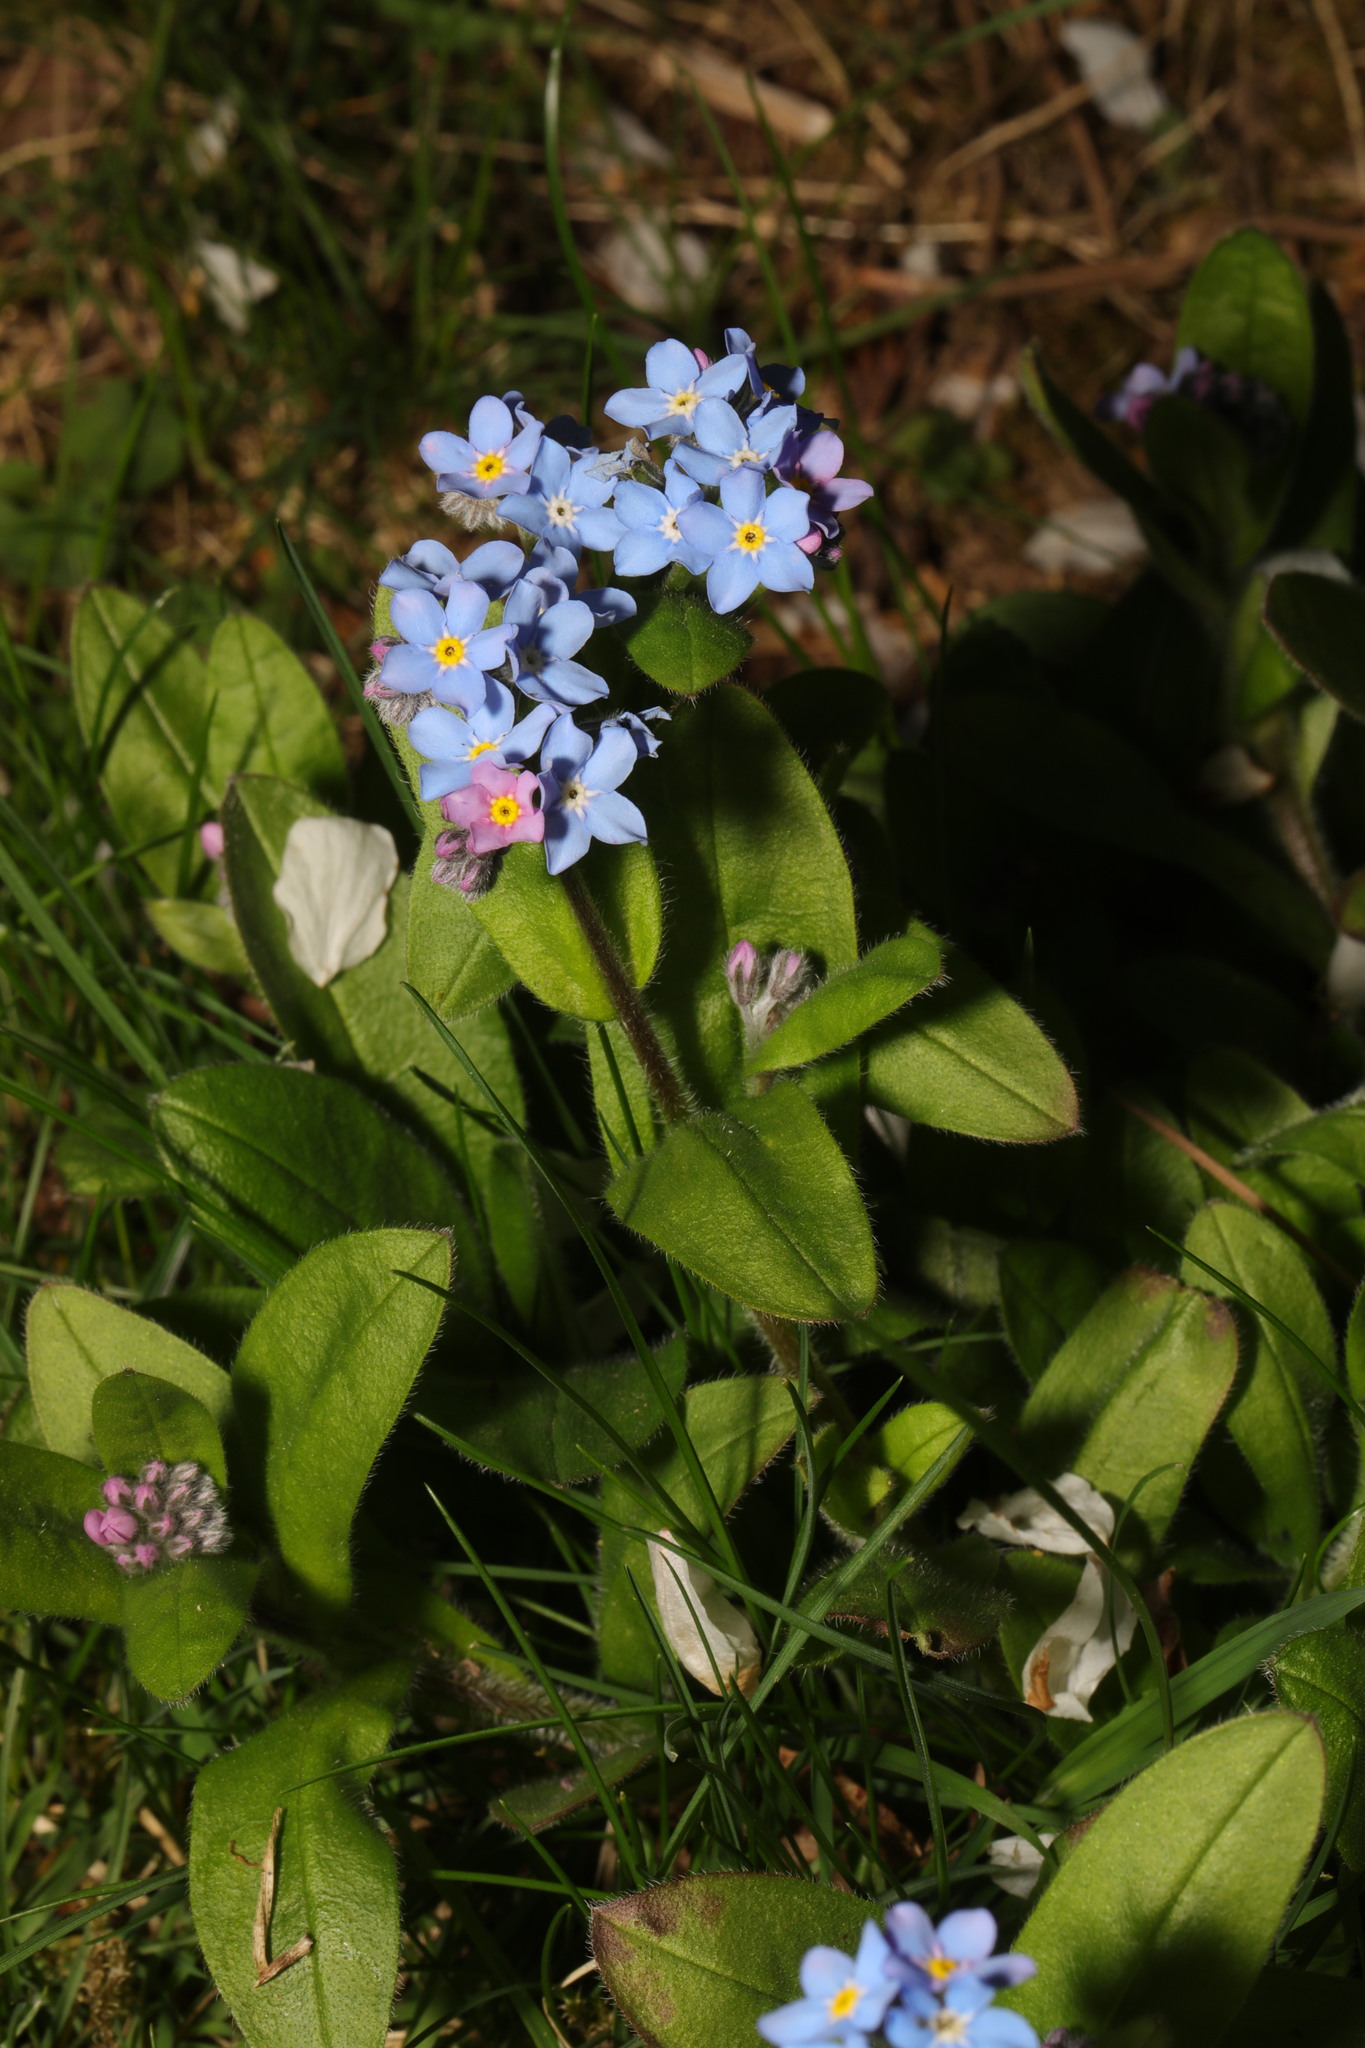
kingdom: Plantae
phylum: Tracheophyta
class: Magnoliopsida
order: Boraginales
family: Boraginaceae
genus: Myosotis
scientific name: Myosotis sylvatica
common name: Wood forget-me-not
